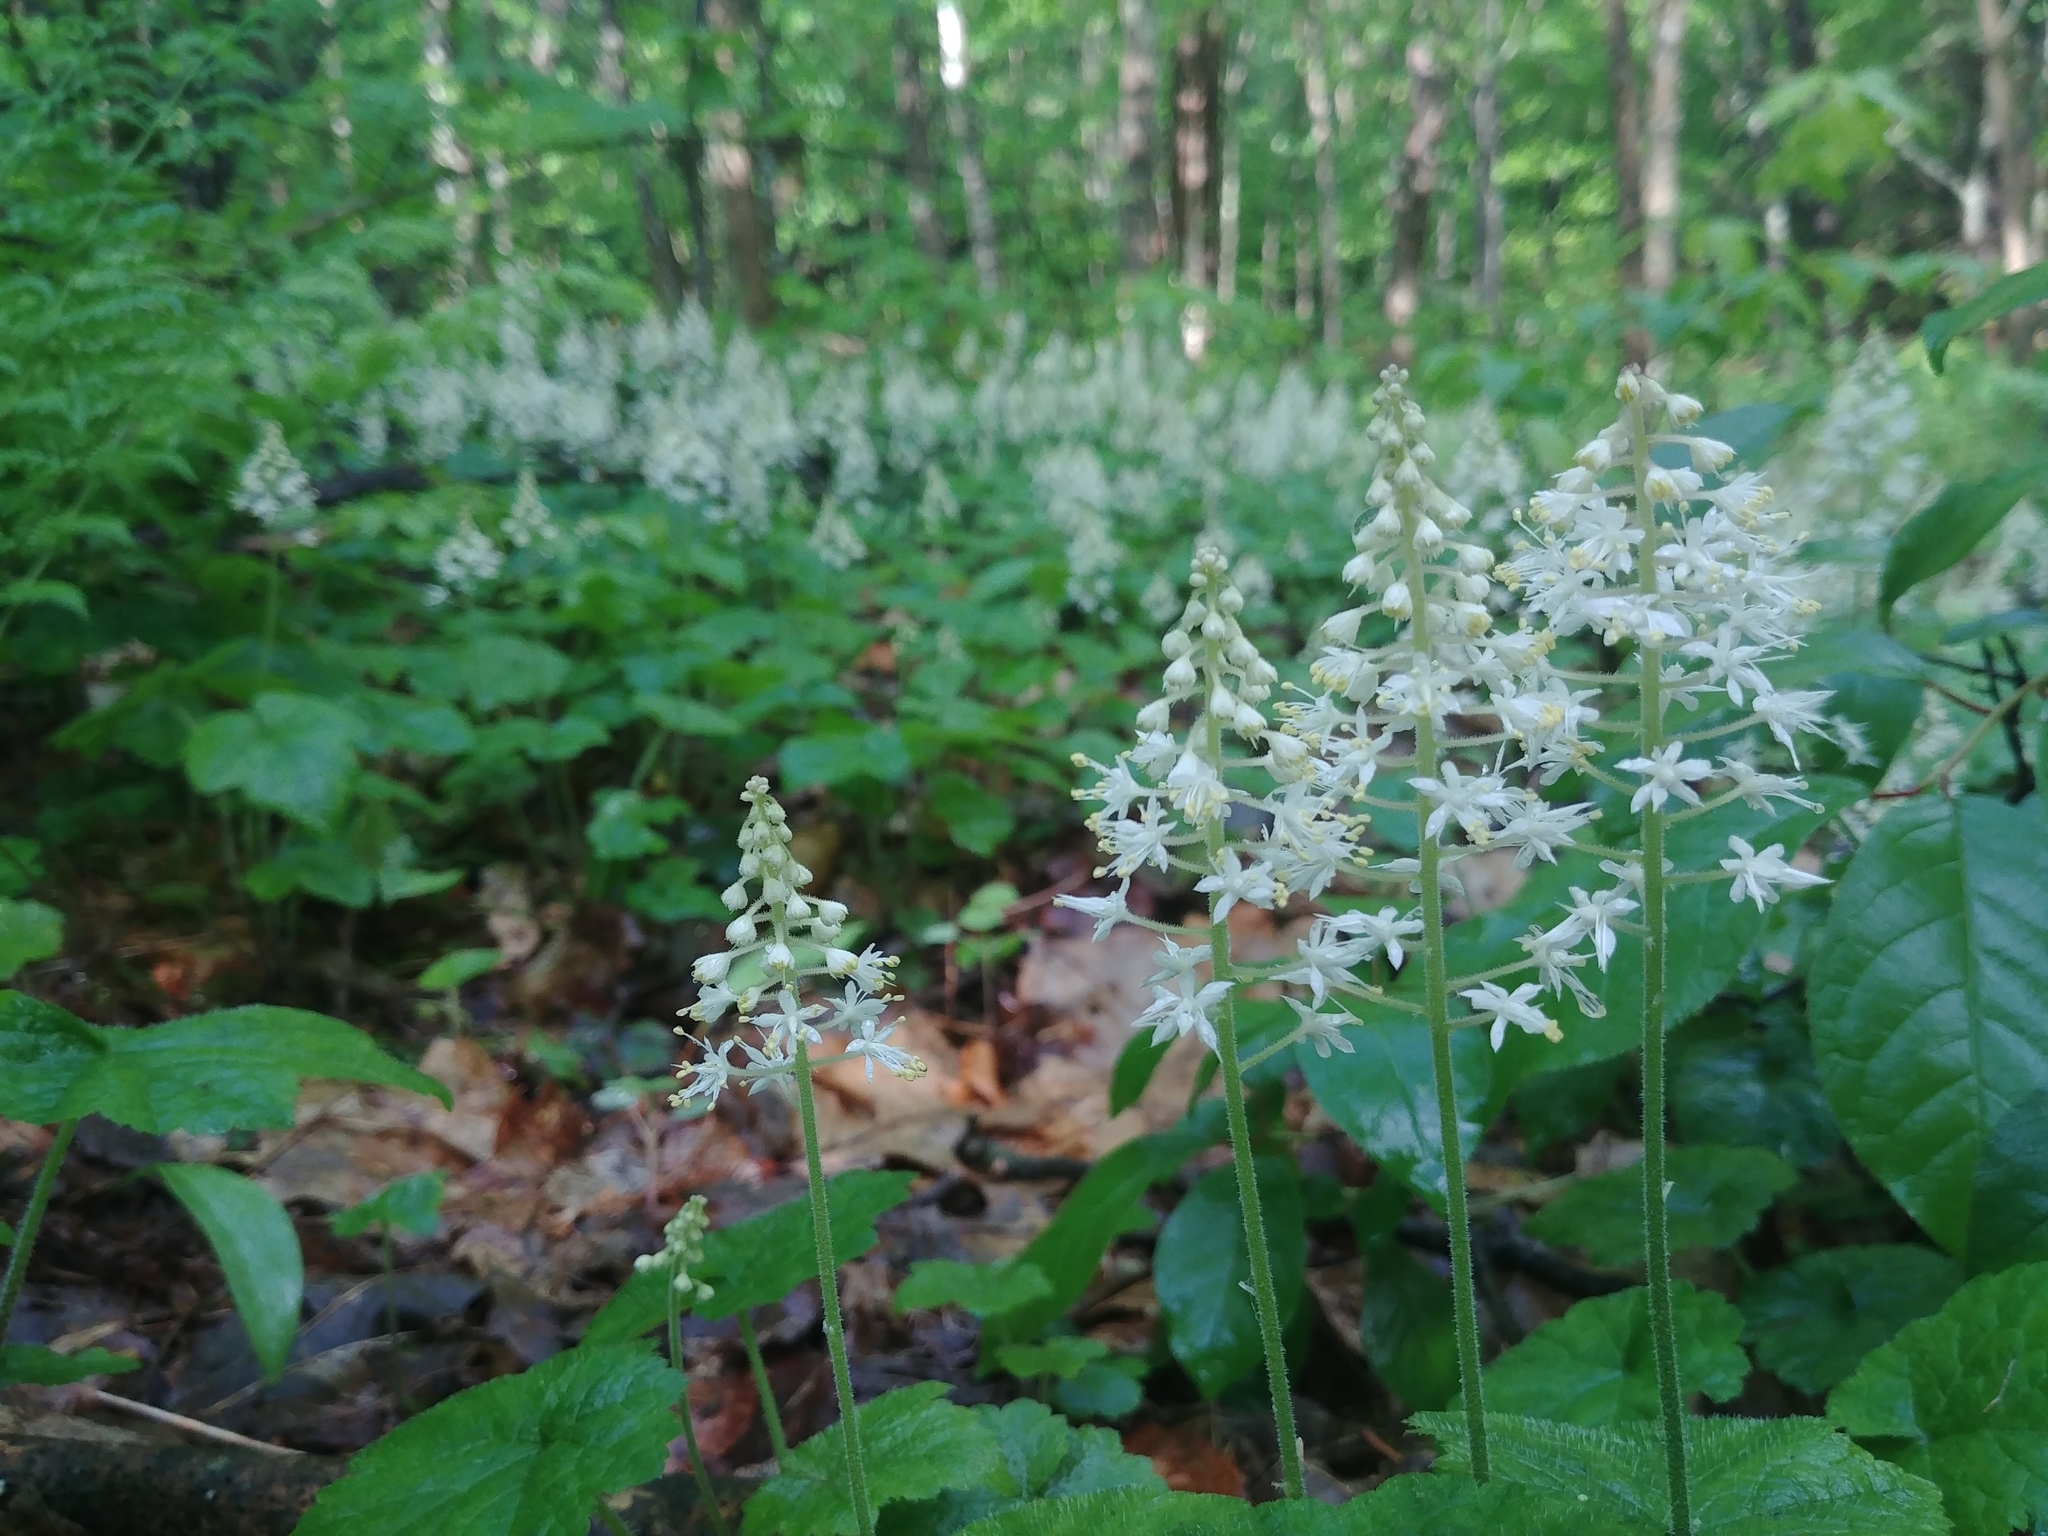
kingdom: Plantae
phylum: Tracheophyta
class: Magnoliopsida
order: Saxifragales
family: Saxifragaceae
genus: Tiarella
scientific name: Tiarella stolonifera
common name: Stoloniferous foamflower
